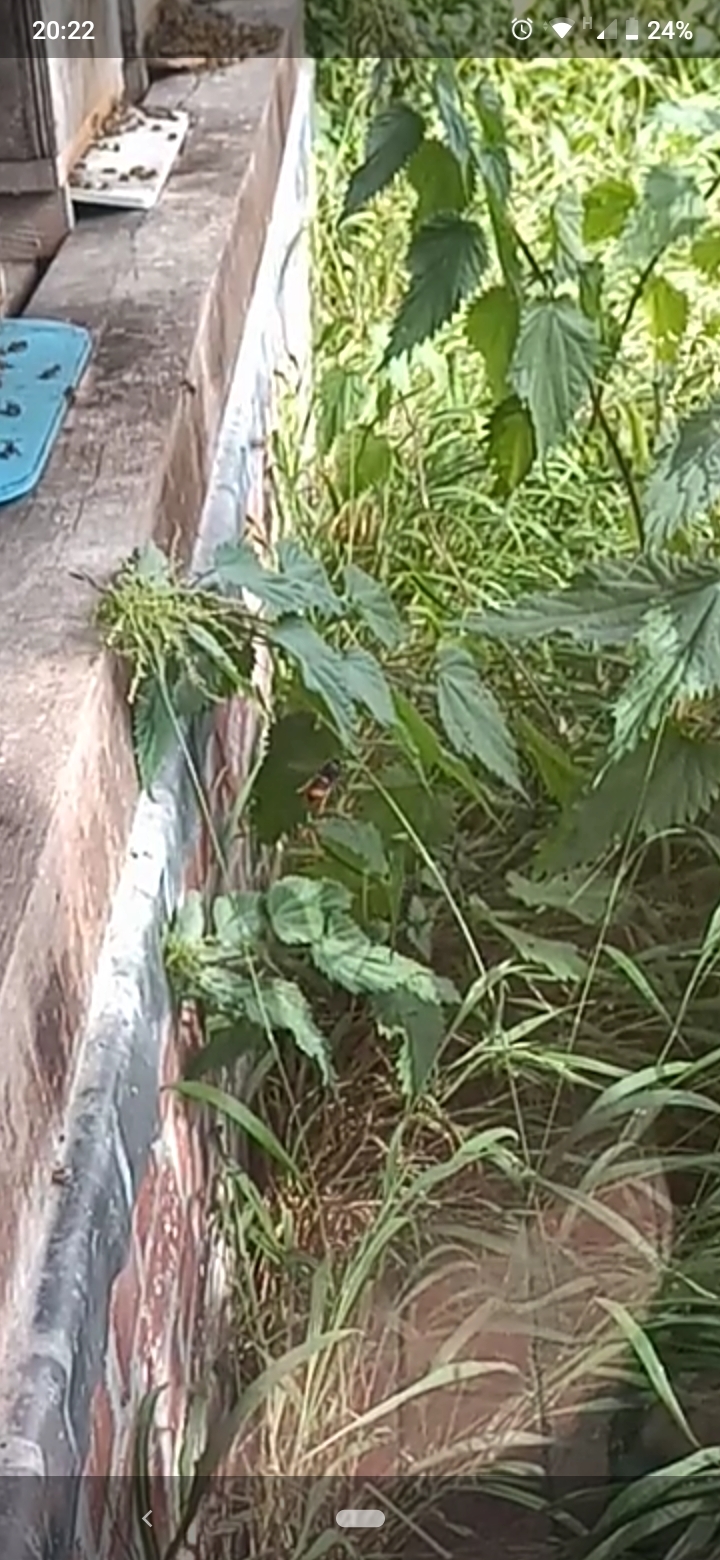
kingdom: Animalia
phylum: Arthropoda
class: Insecta
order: Hymenoptera
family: Vespidae
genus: Vespa
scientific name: Vespa velutina
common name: Asian hornet
